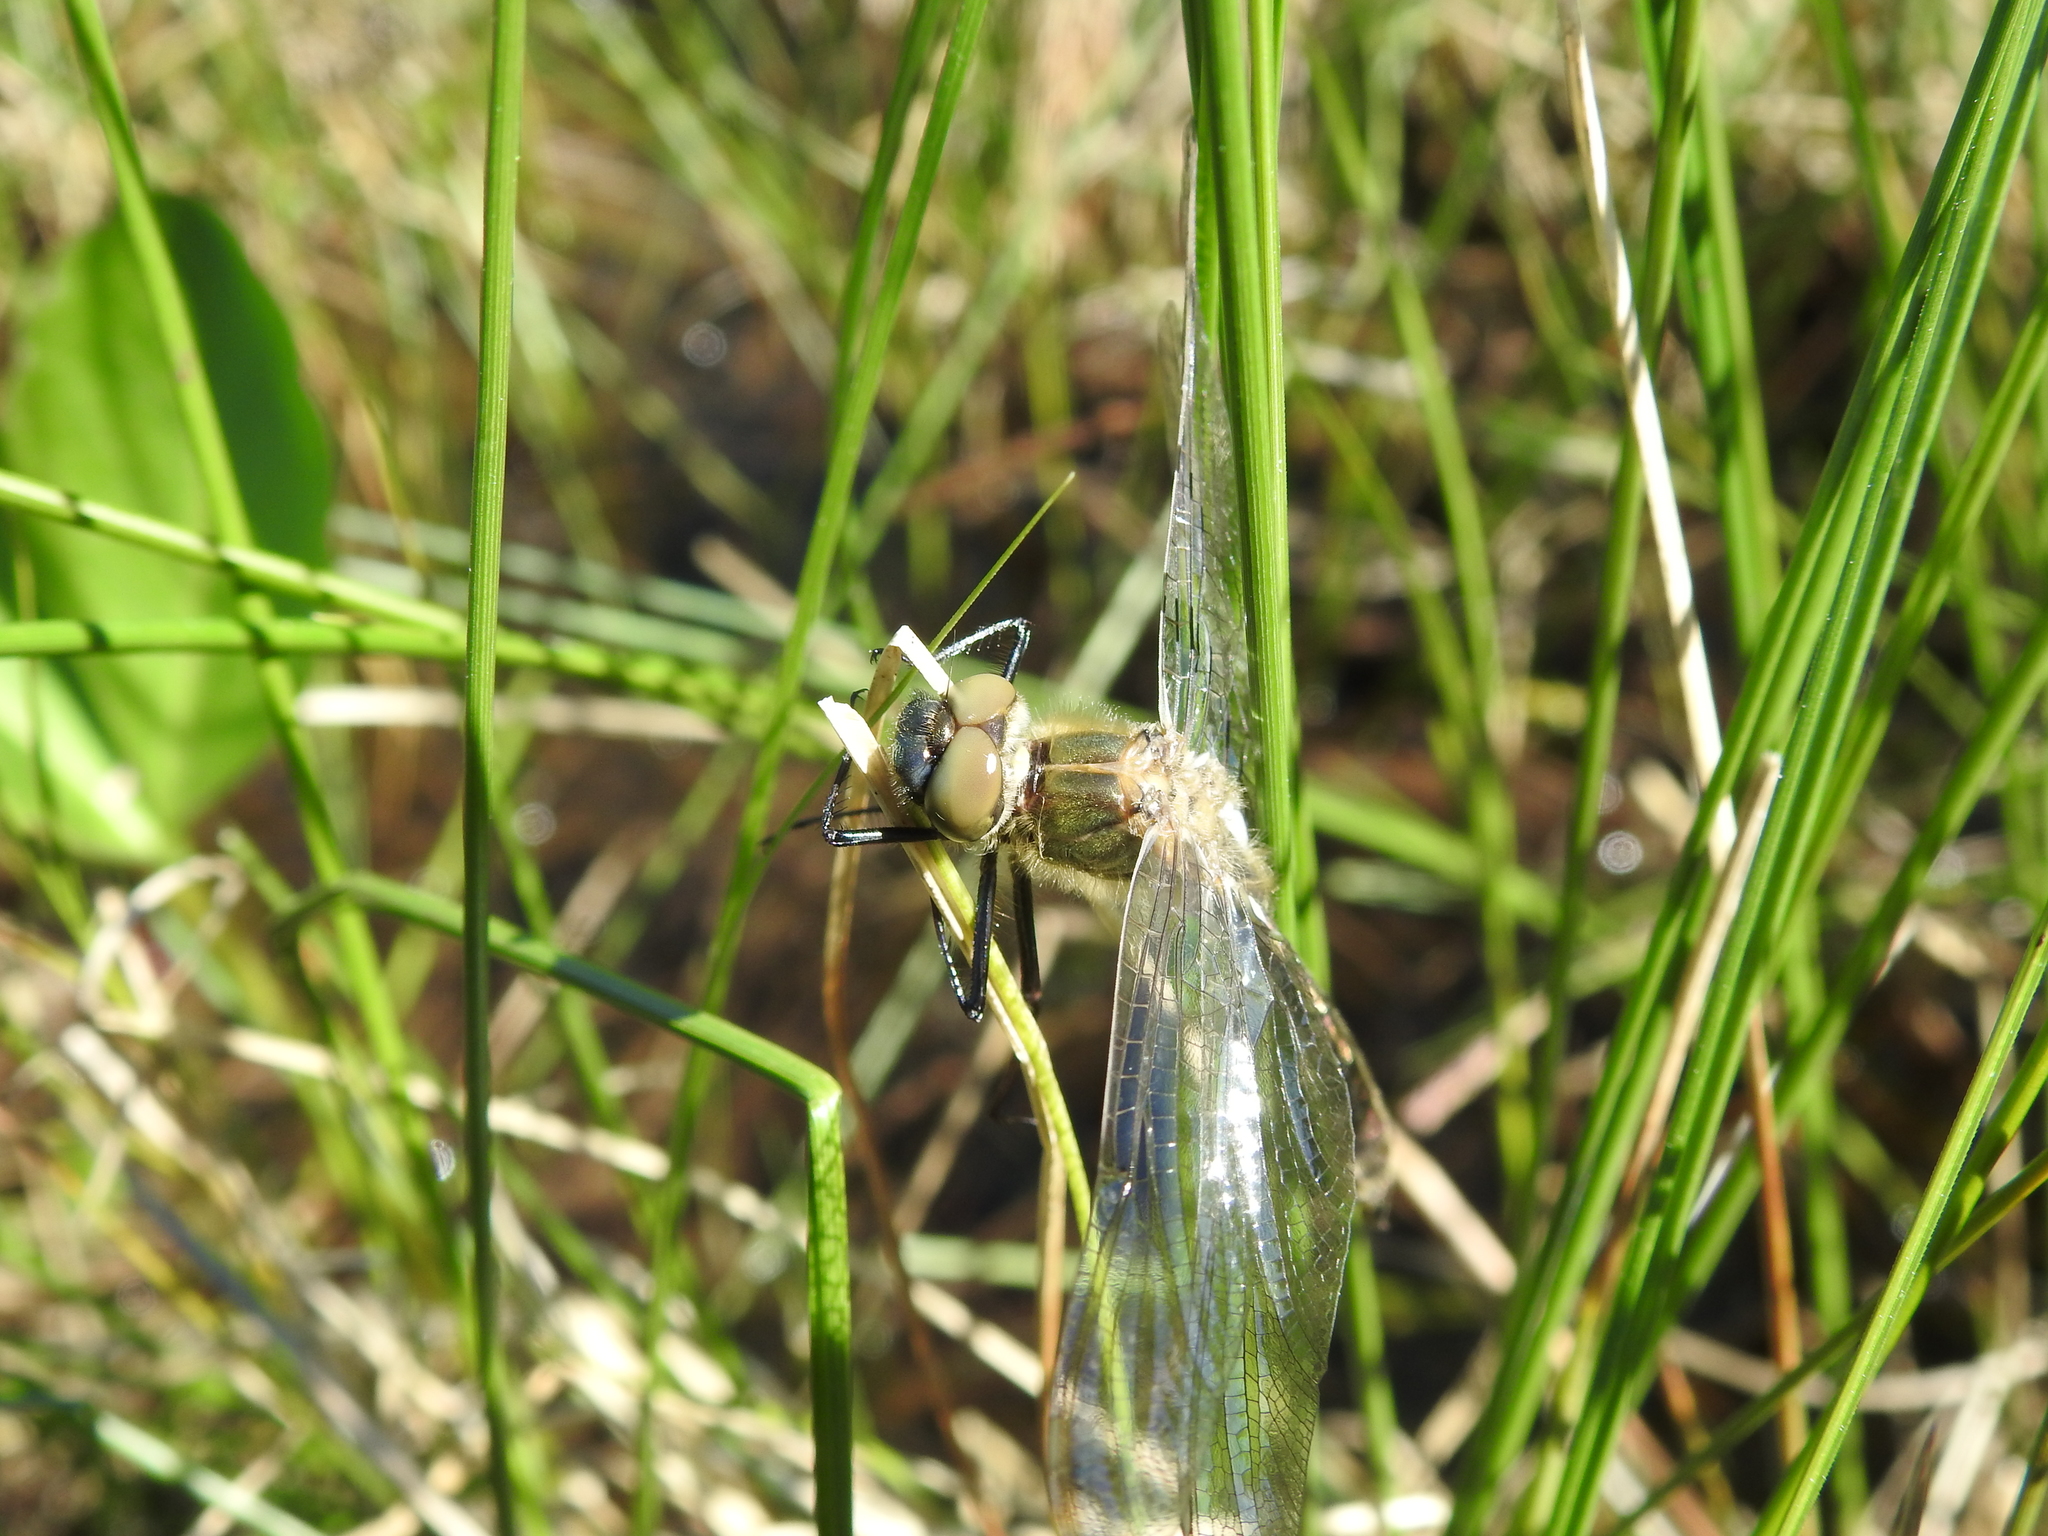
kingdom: Animalia
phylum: Arthropoda
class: Insecta
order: Odonata
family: Corduliidae
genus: Cordulia
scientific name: Cordulia aenea
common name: Downy emerald
